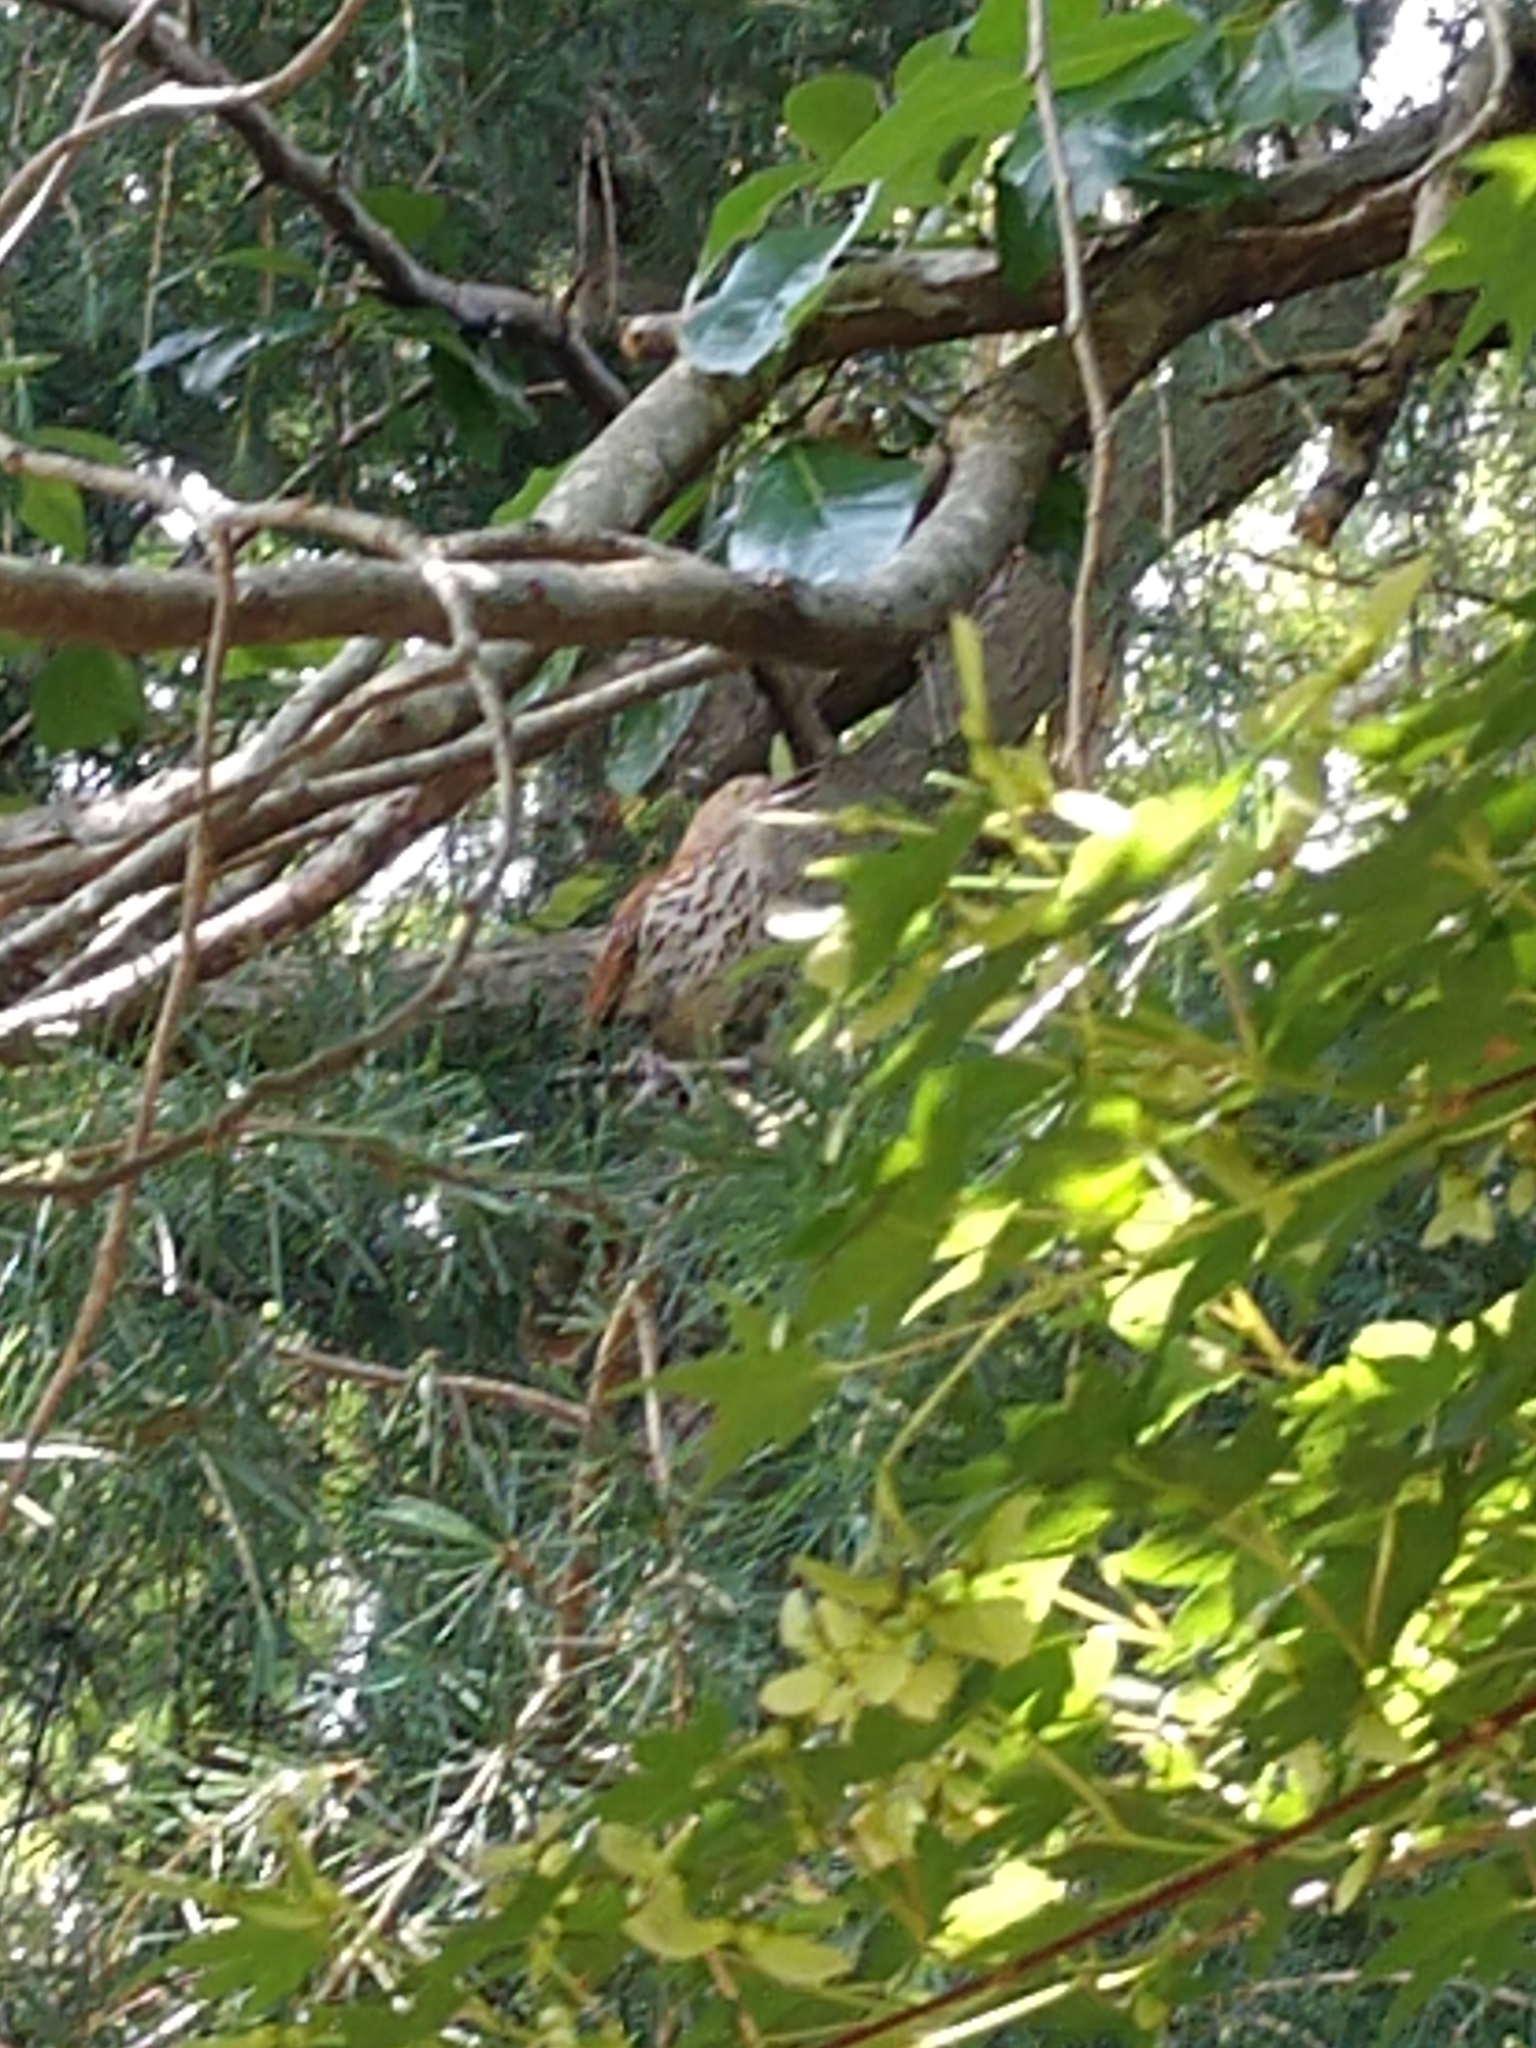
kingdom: Animalia
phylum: Chordata
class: Aves
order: Passeriformes
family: Mimidae
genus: Toxostoma
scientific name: Toxostoma rufum
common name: Brown thrasher
